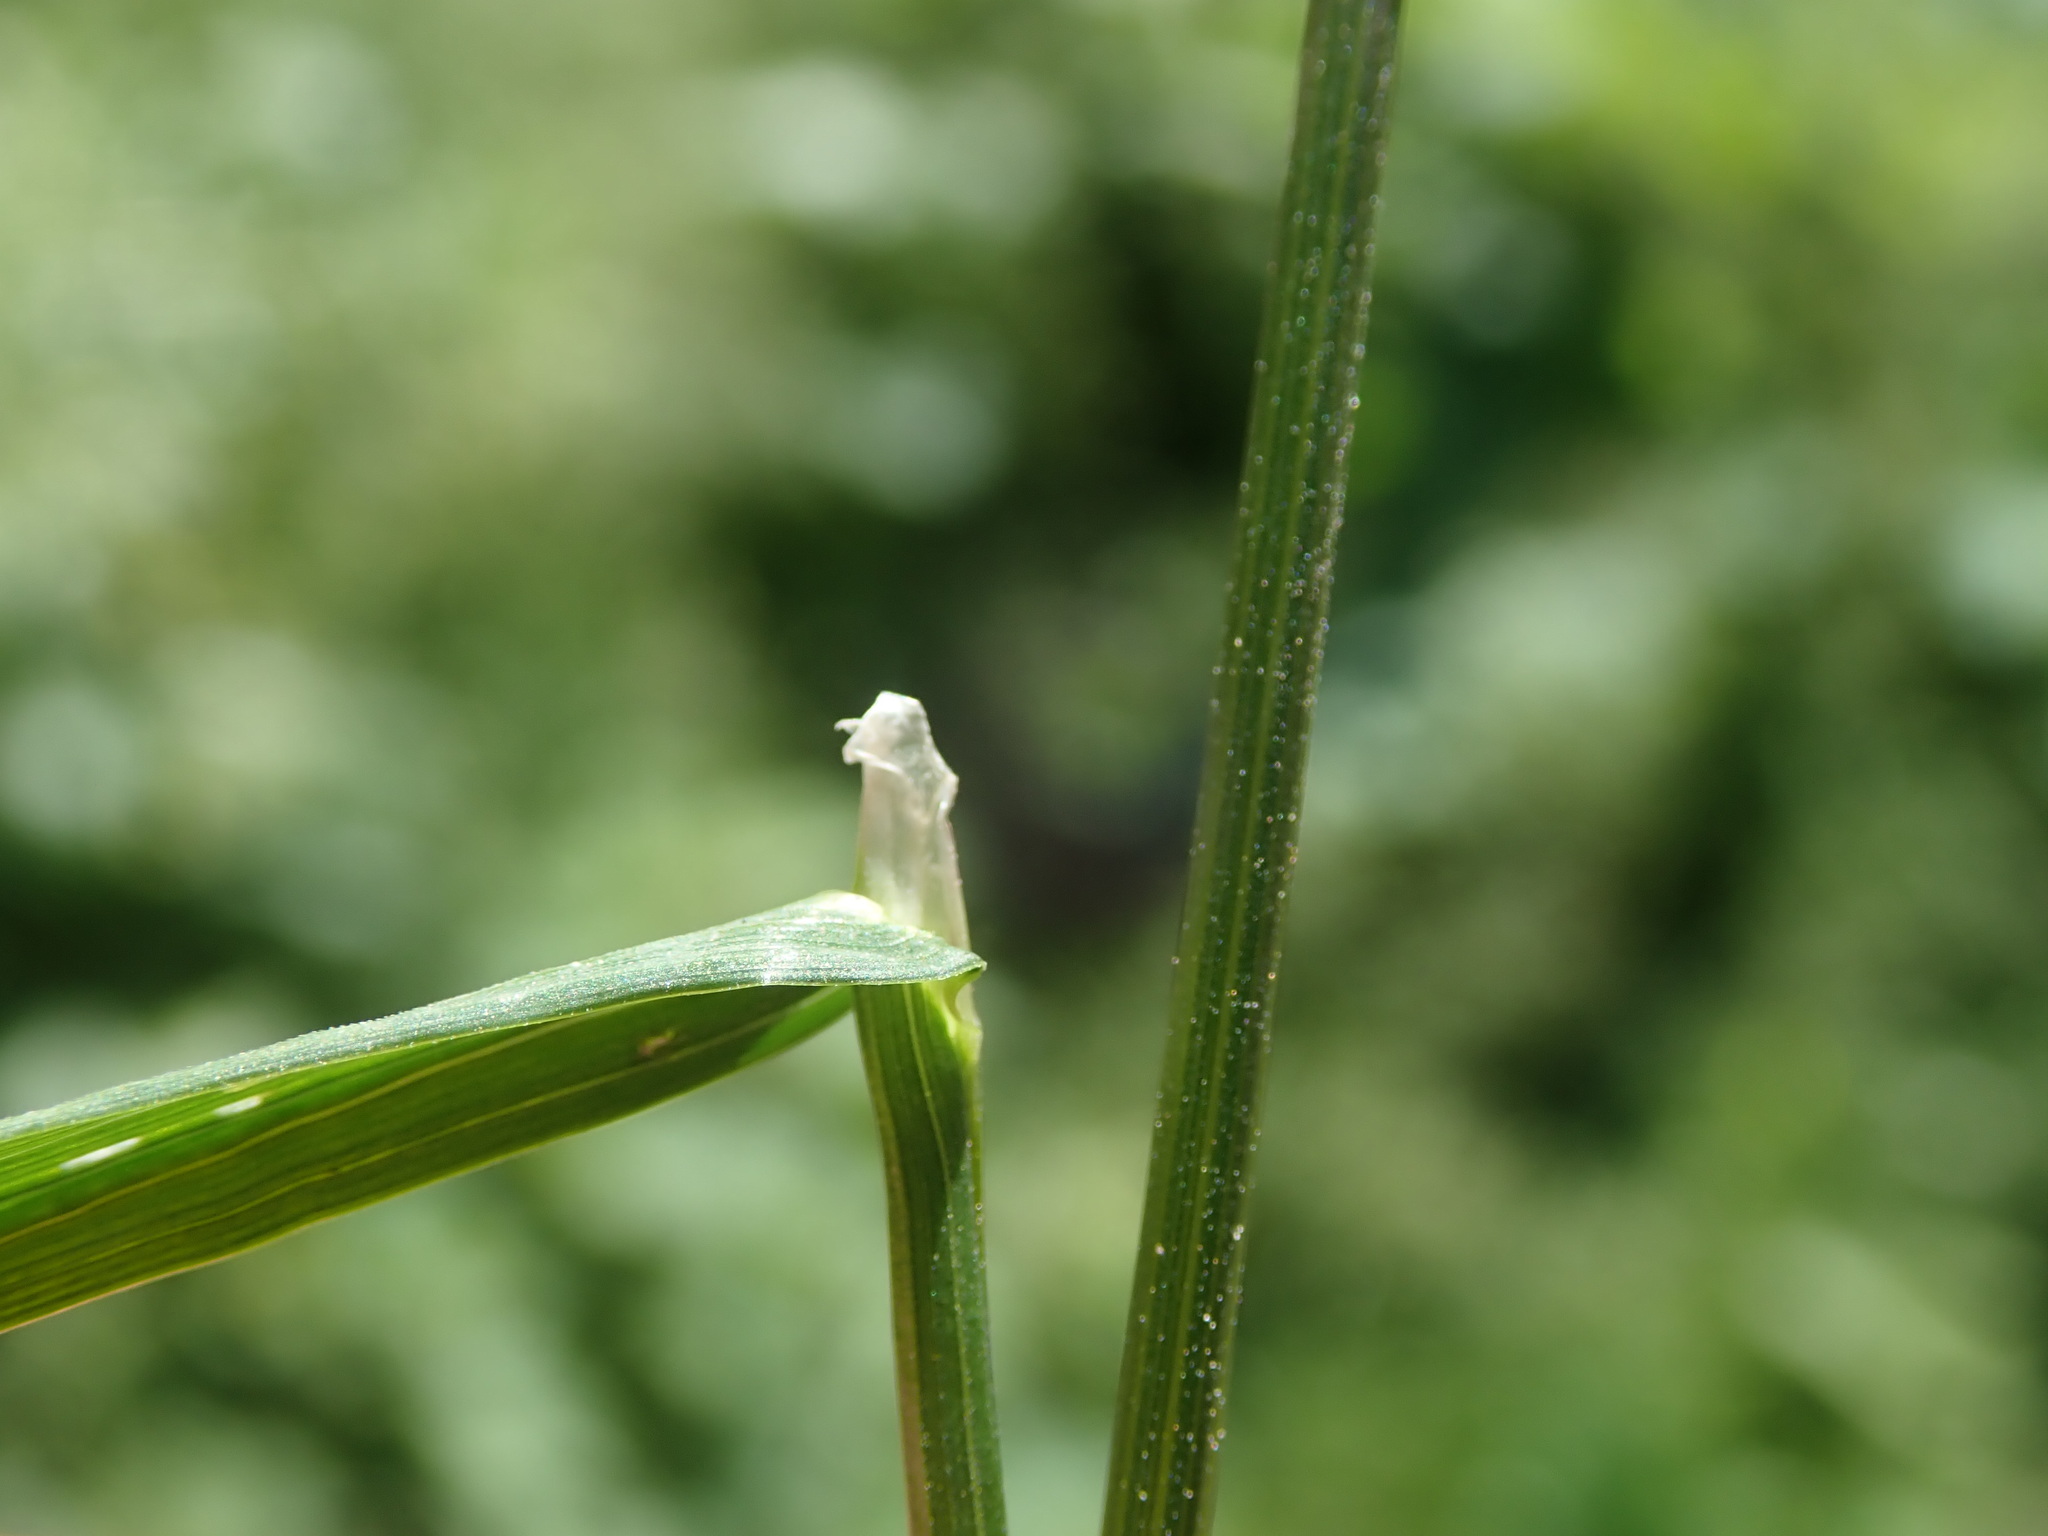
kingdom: Plantae
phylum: Tracheophyta
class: Liliopsida
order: Poales
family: Poaceae
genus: Poa
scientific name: Poa trivialis
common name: Rough bluegrass
